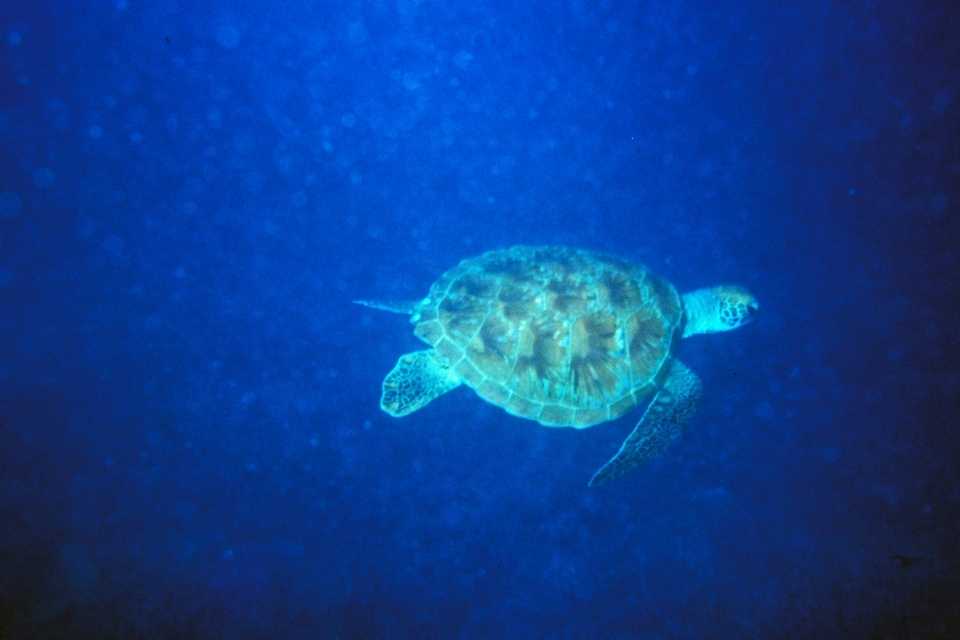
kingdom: Animalia
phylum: Chordata
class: Testudines
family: Cheloniidae
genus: Chelonia
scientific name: Chelonia mydas
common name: Green turtle
